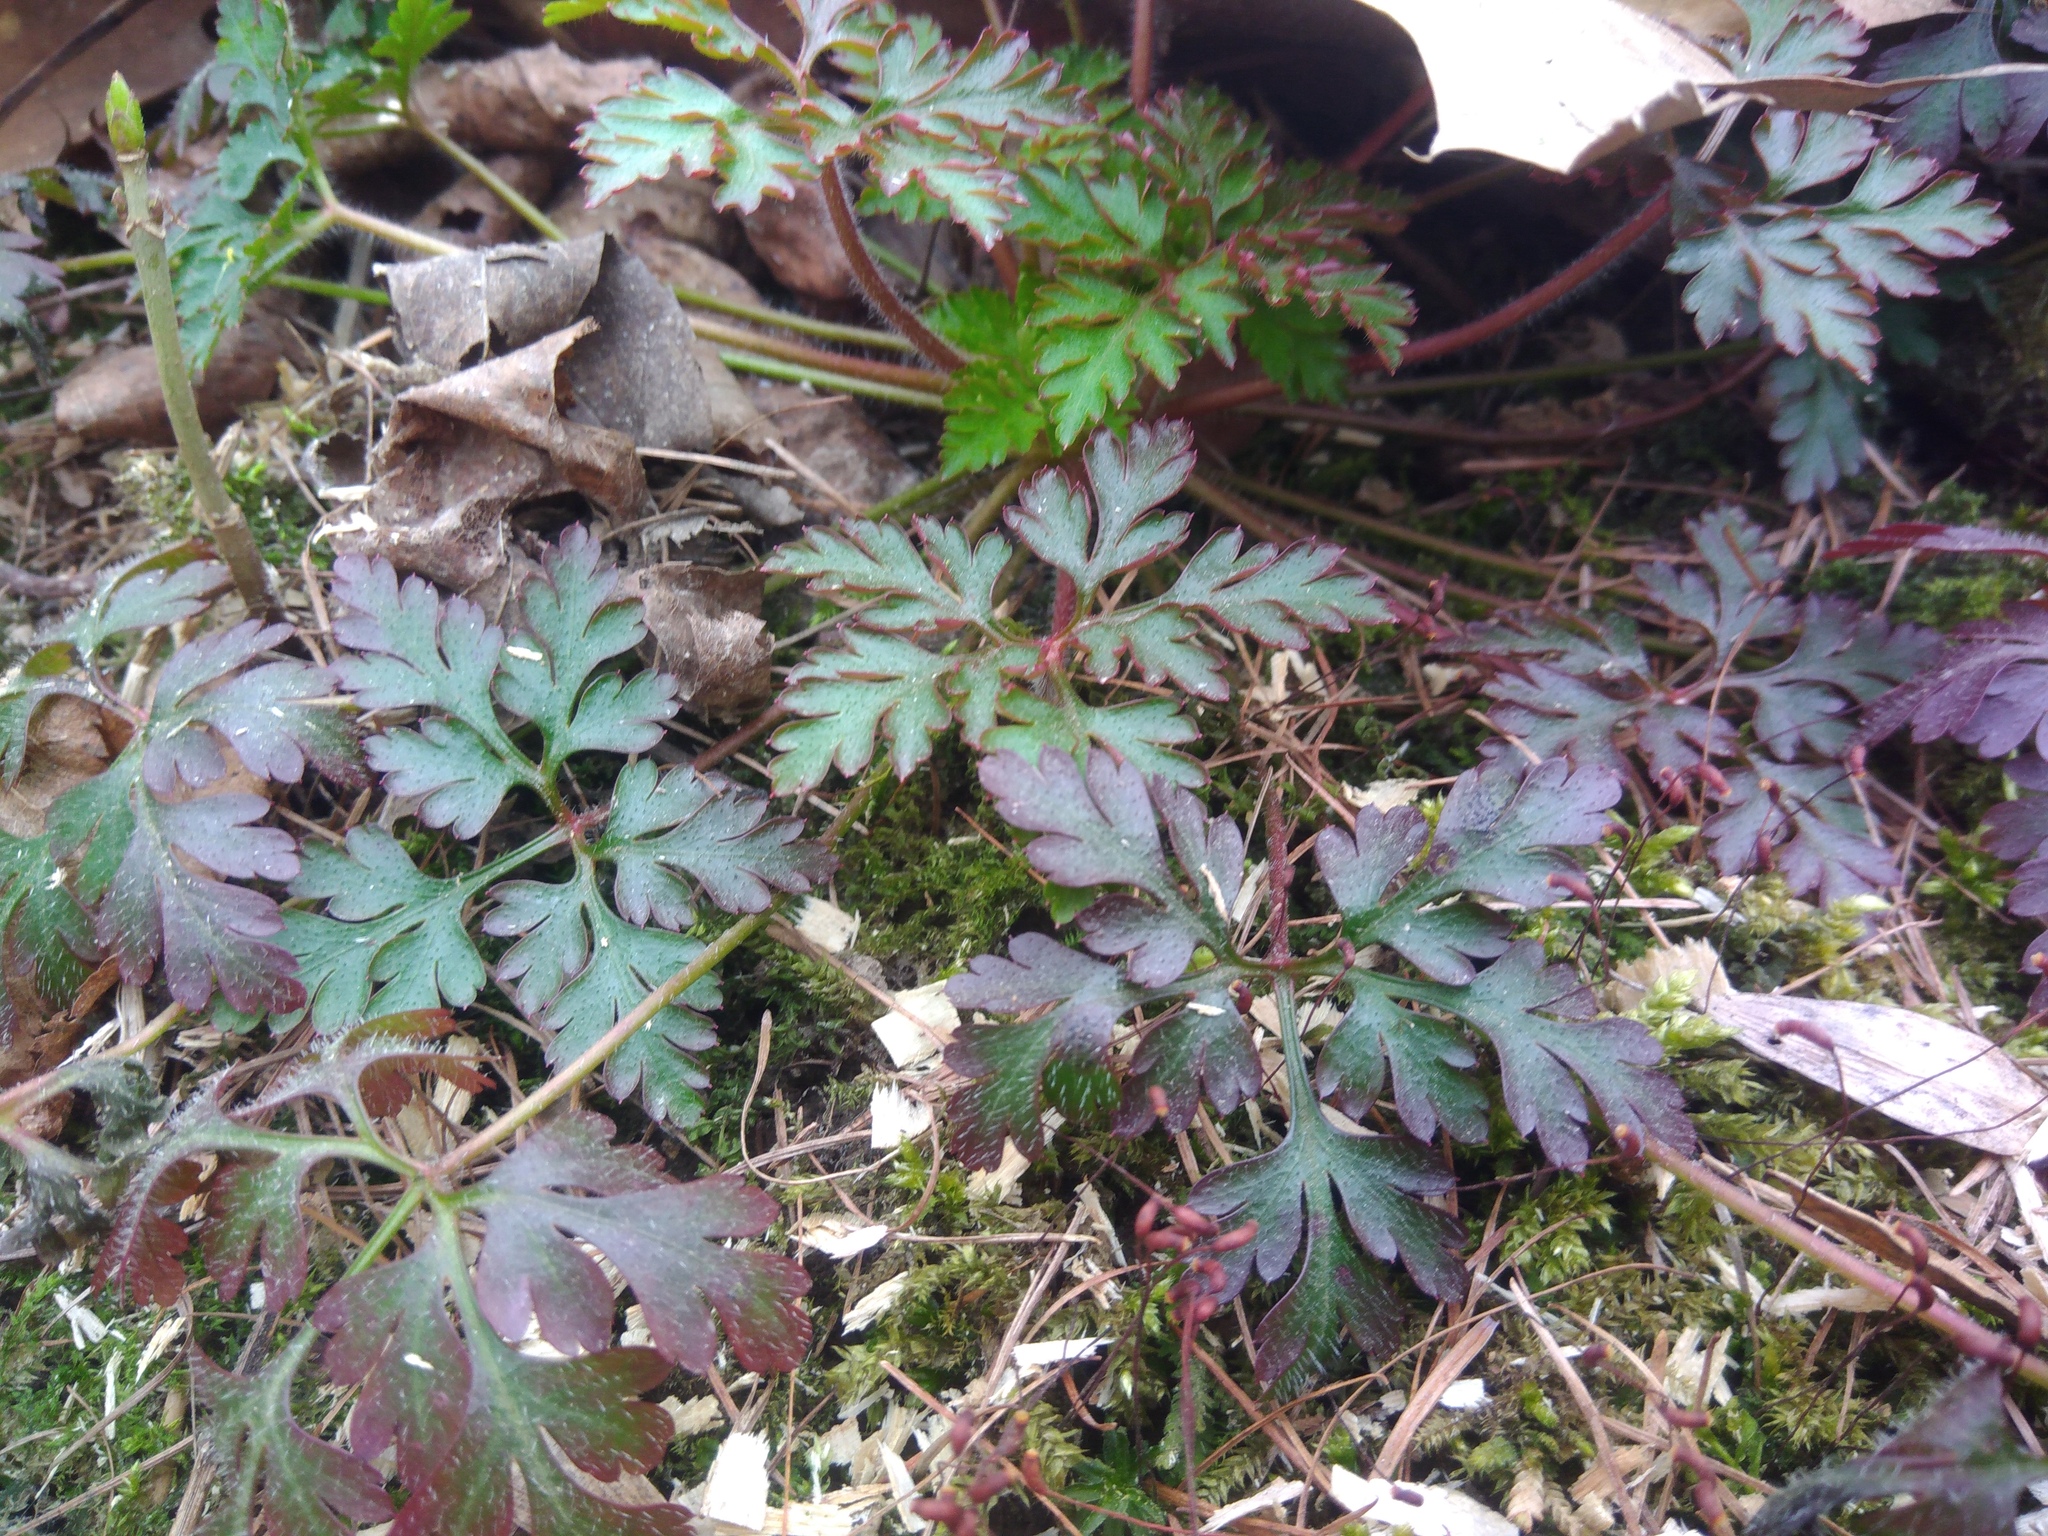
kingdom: Plantae
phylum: Tracheophyta
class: Magnoliopsida
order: Geraniales
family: Geraniaceae
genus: Geranium
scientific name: Geranium robertianum
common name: Herb-robert
